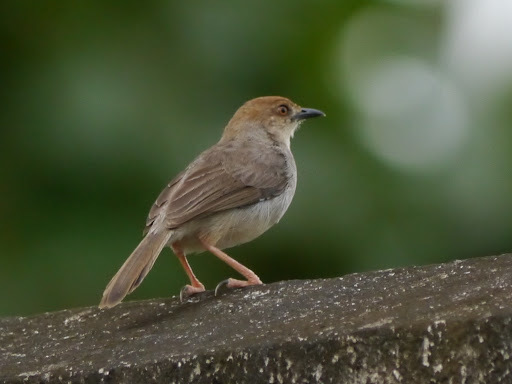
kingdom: Animalia
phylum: Chordata
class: Aves
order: Passeriformes
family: Cisticolidae
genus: Cisticola
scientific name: Cisticola anonymus
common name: Chattering cisticola
